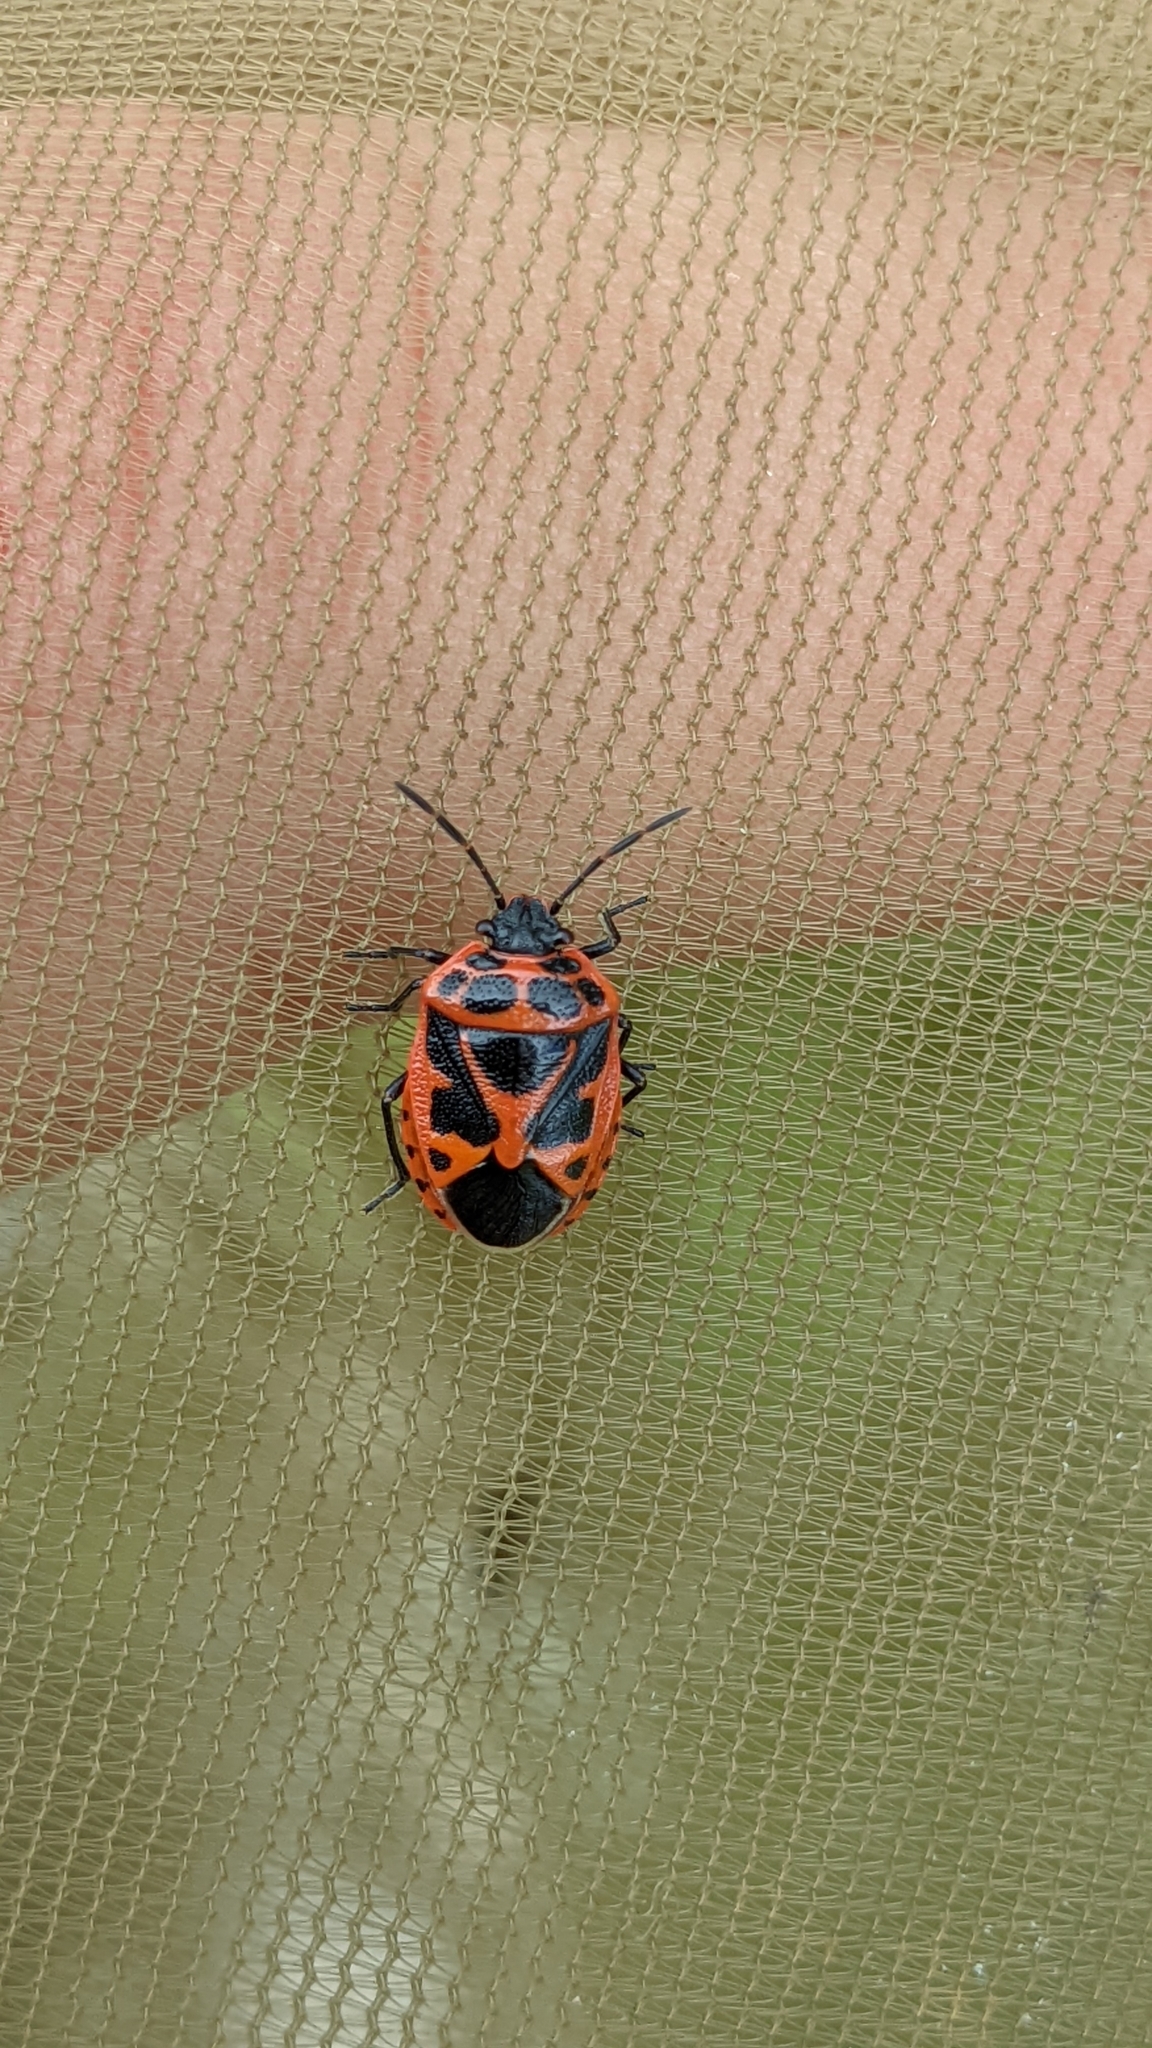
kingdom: Animalia
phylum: Arthropoda
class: Insecta
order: Hemiptera
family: Pentatomidae
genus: Eurydema
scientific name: Eurydema dominulus
